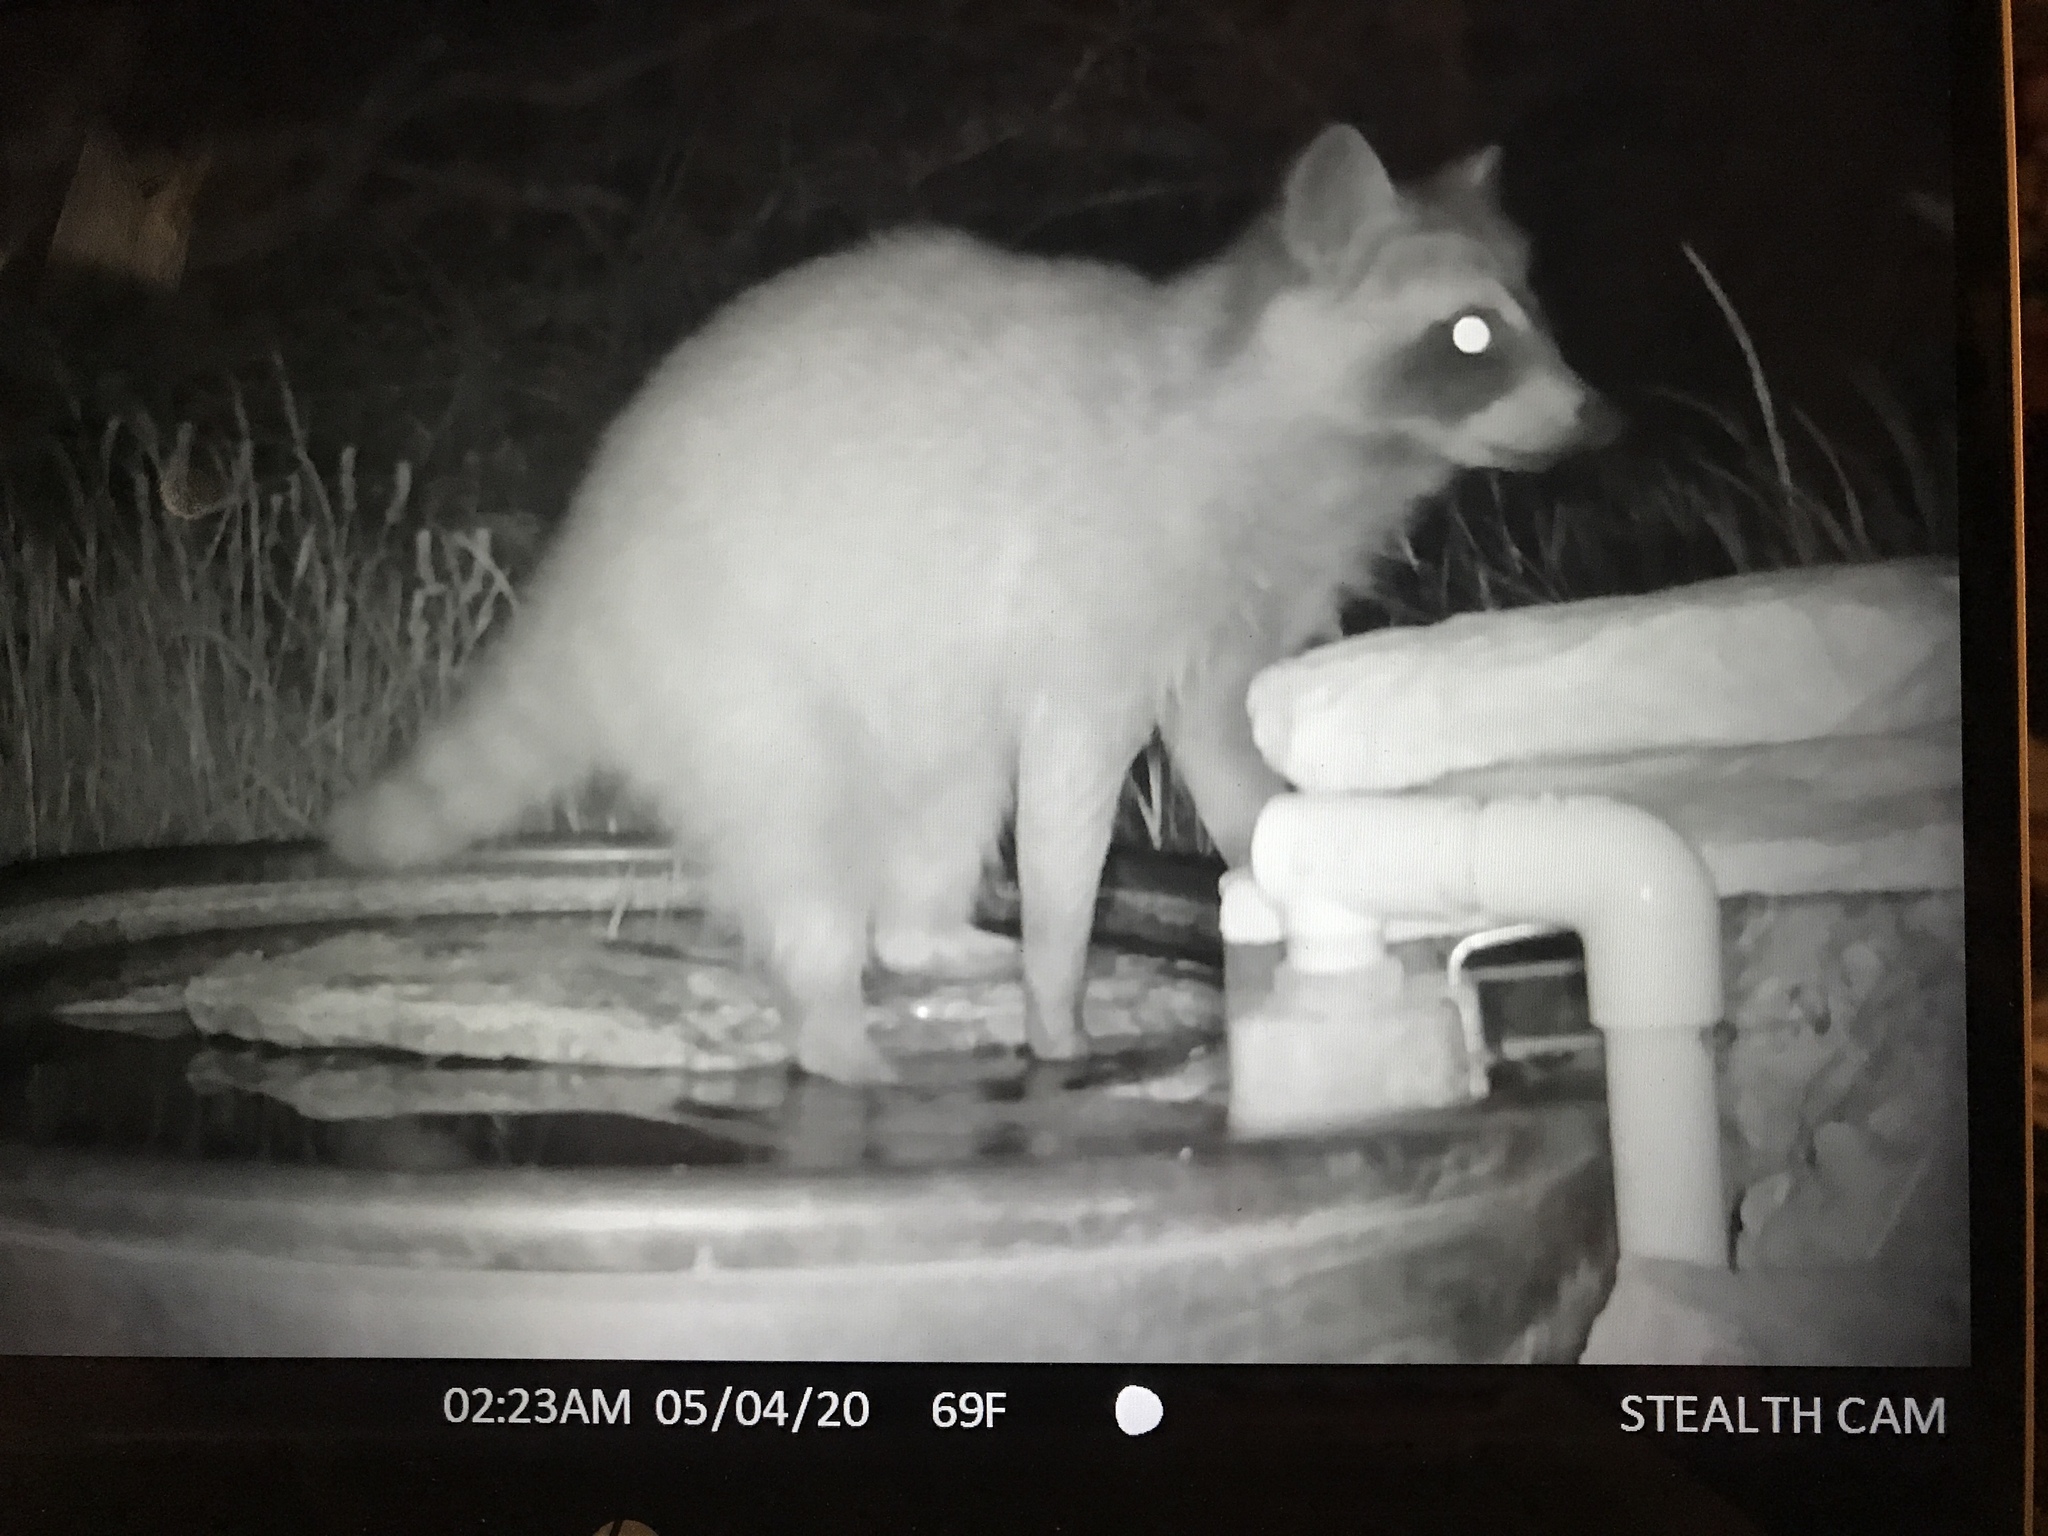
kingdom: Animalia
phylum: Chordata
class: Mammalia
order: Carnivora
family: Procyonidae
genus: Procyon
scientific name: Procyon lotor
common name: Raccoon
